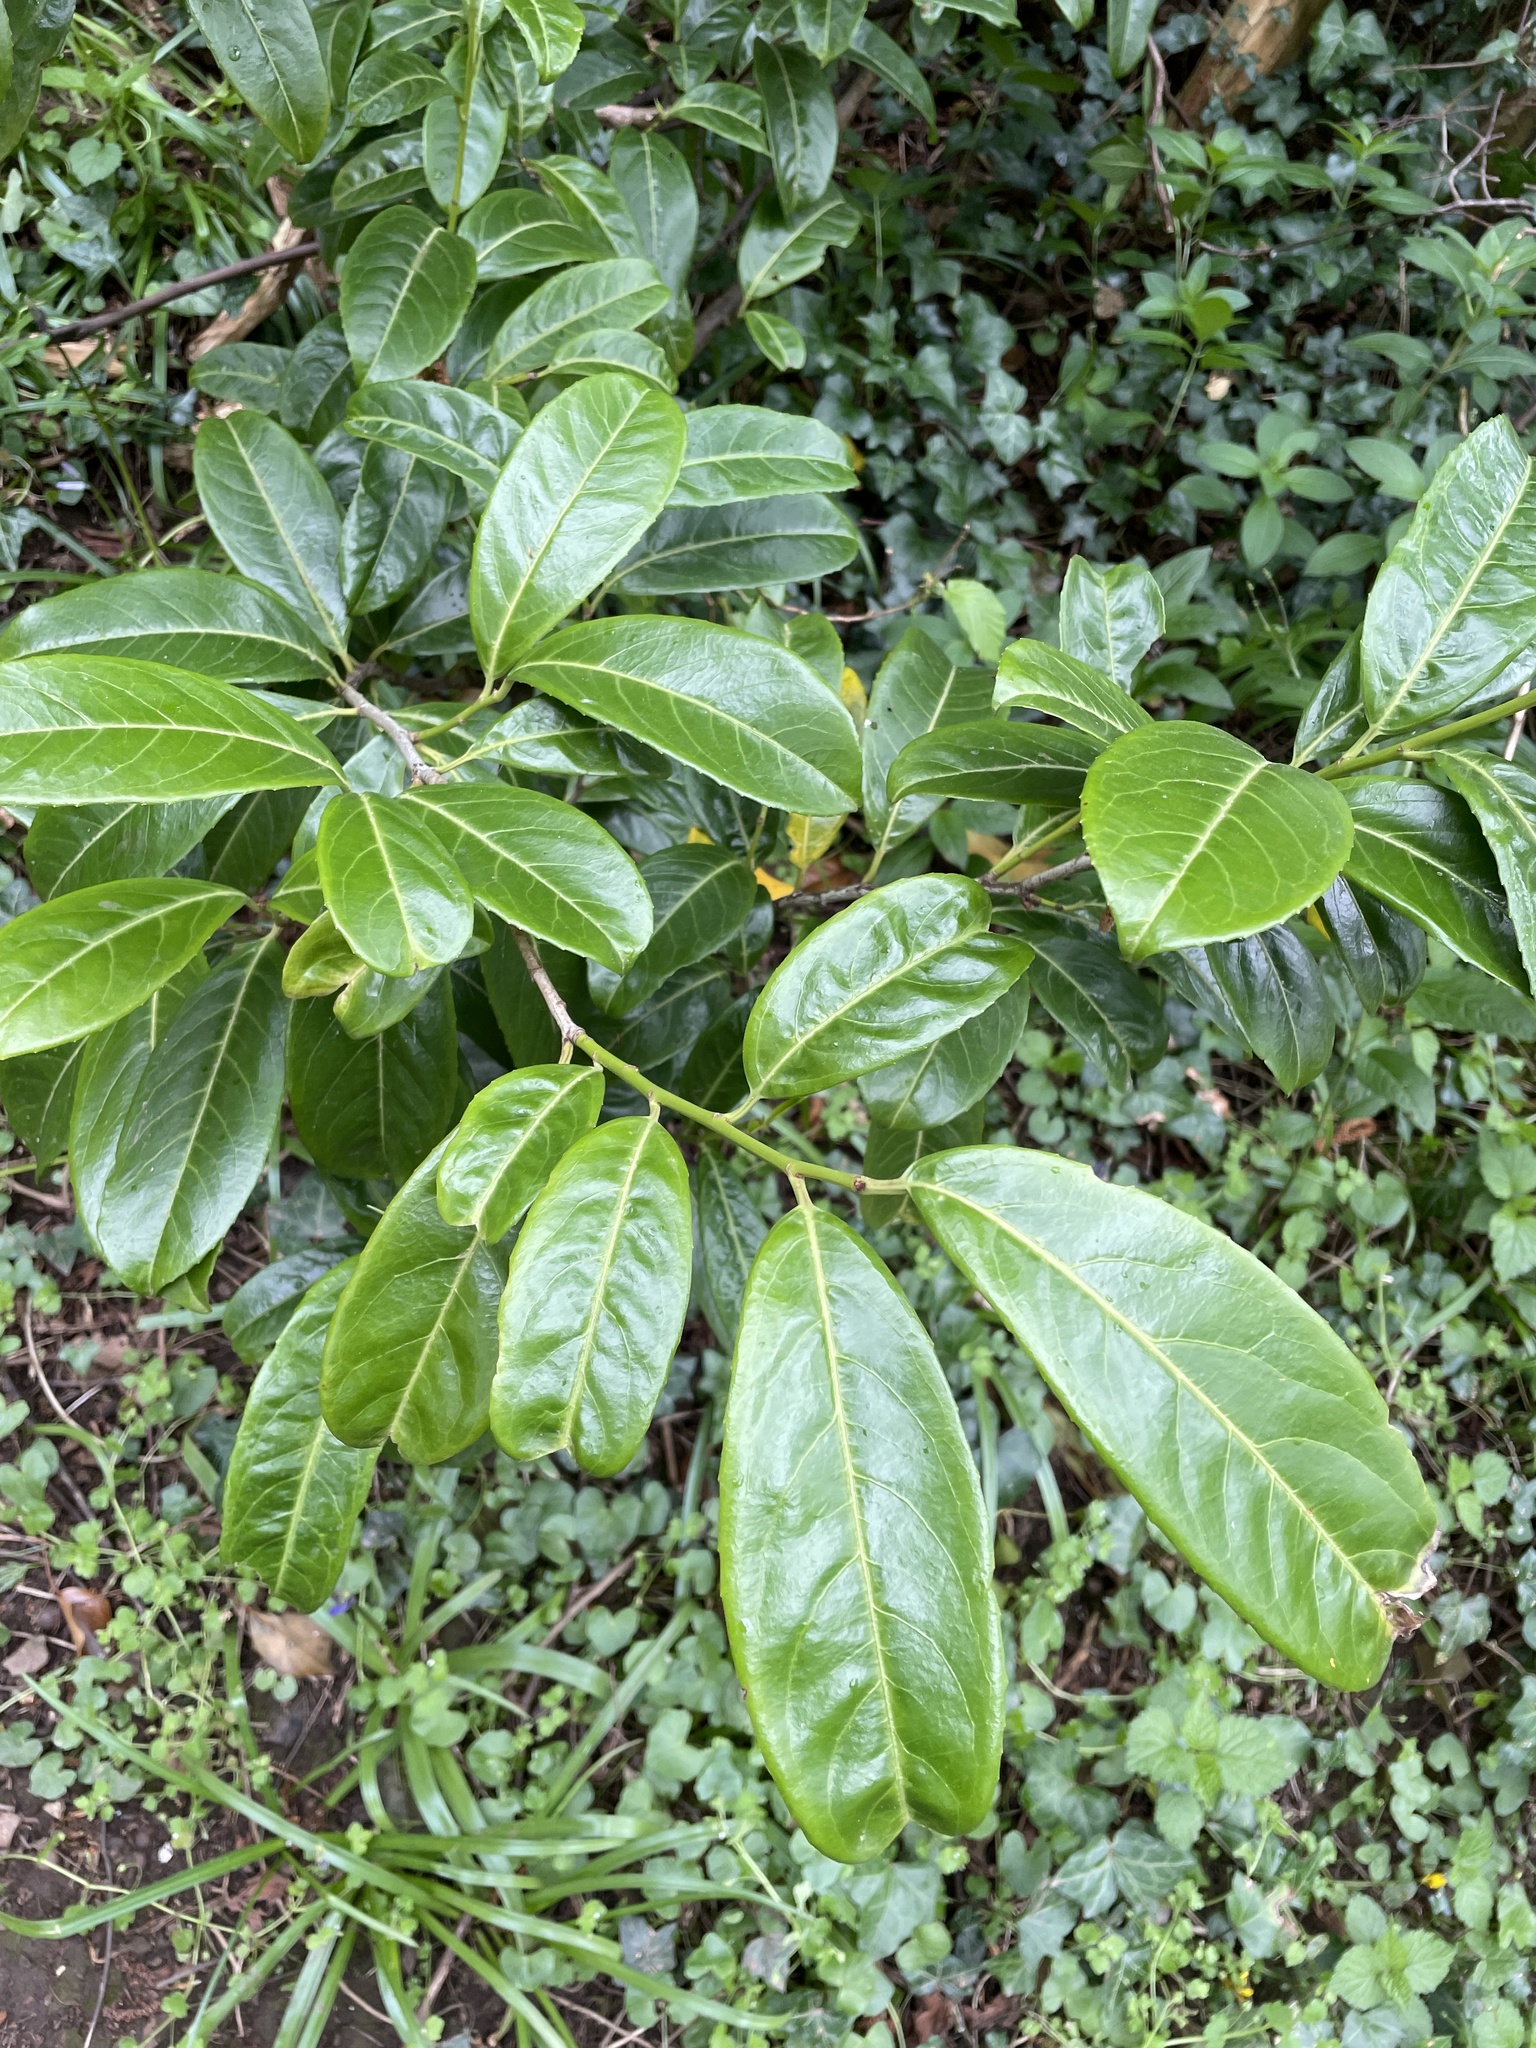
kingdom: Plantae
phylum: Tracheophyta
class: Magnoliopsida
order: Rosales
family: Rosaceae
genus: Prunus
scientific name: Prunus laurocerasus
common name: Cherry laurel
